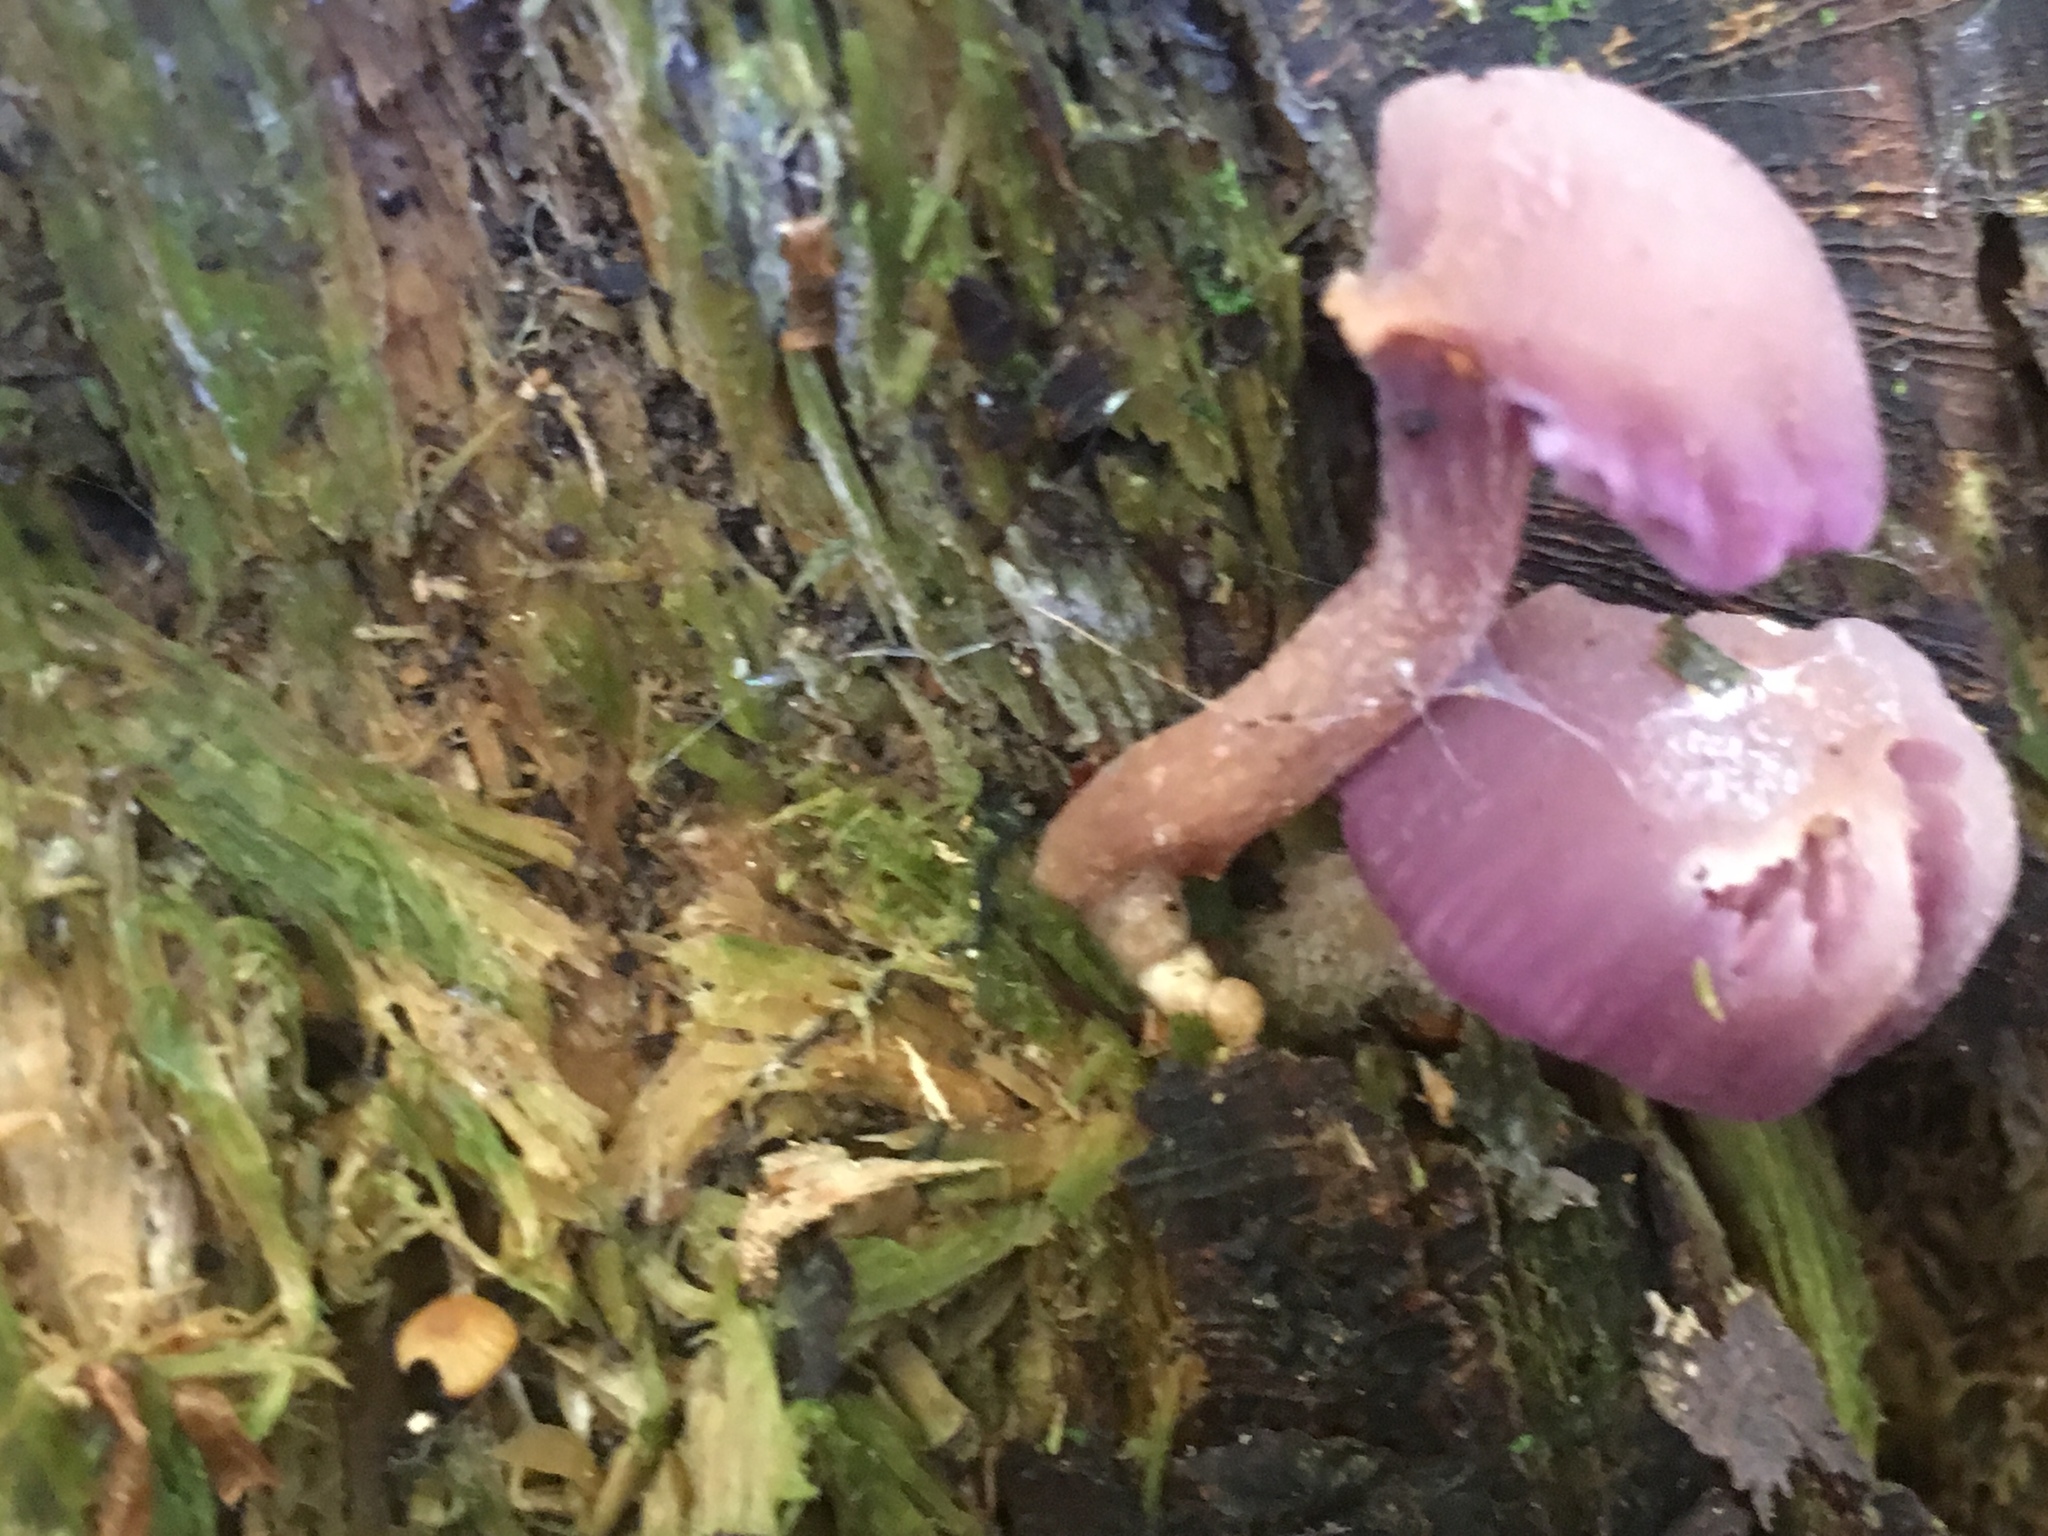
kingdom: Fungi
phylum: Basidiomycota
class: Agaricomycetes
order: Agaricales
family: Hydnangiaceae
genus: Laccaria
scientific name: Laccaria amethystina
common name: Amethyst deceiver
